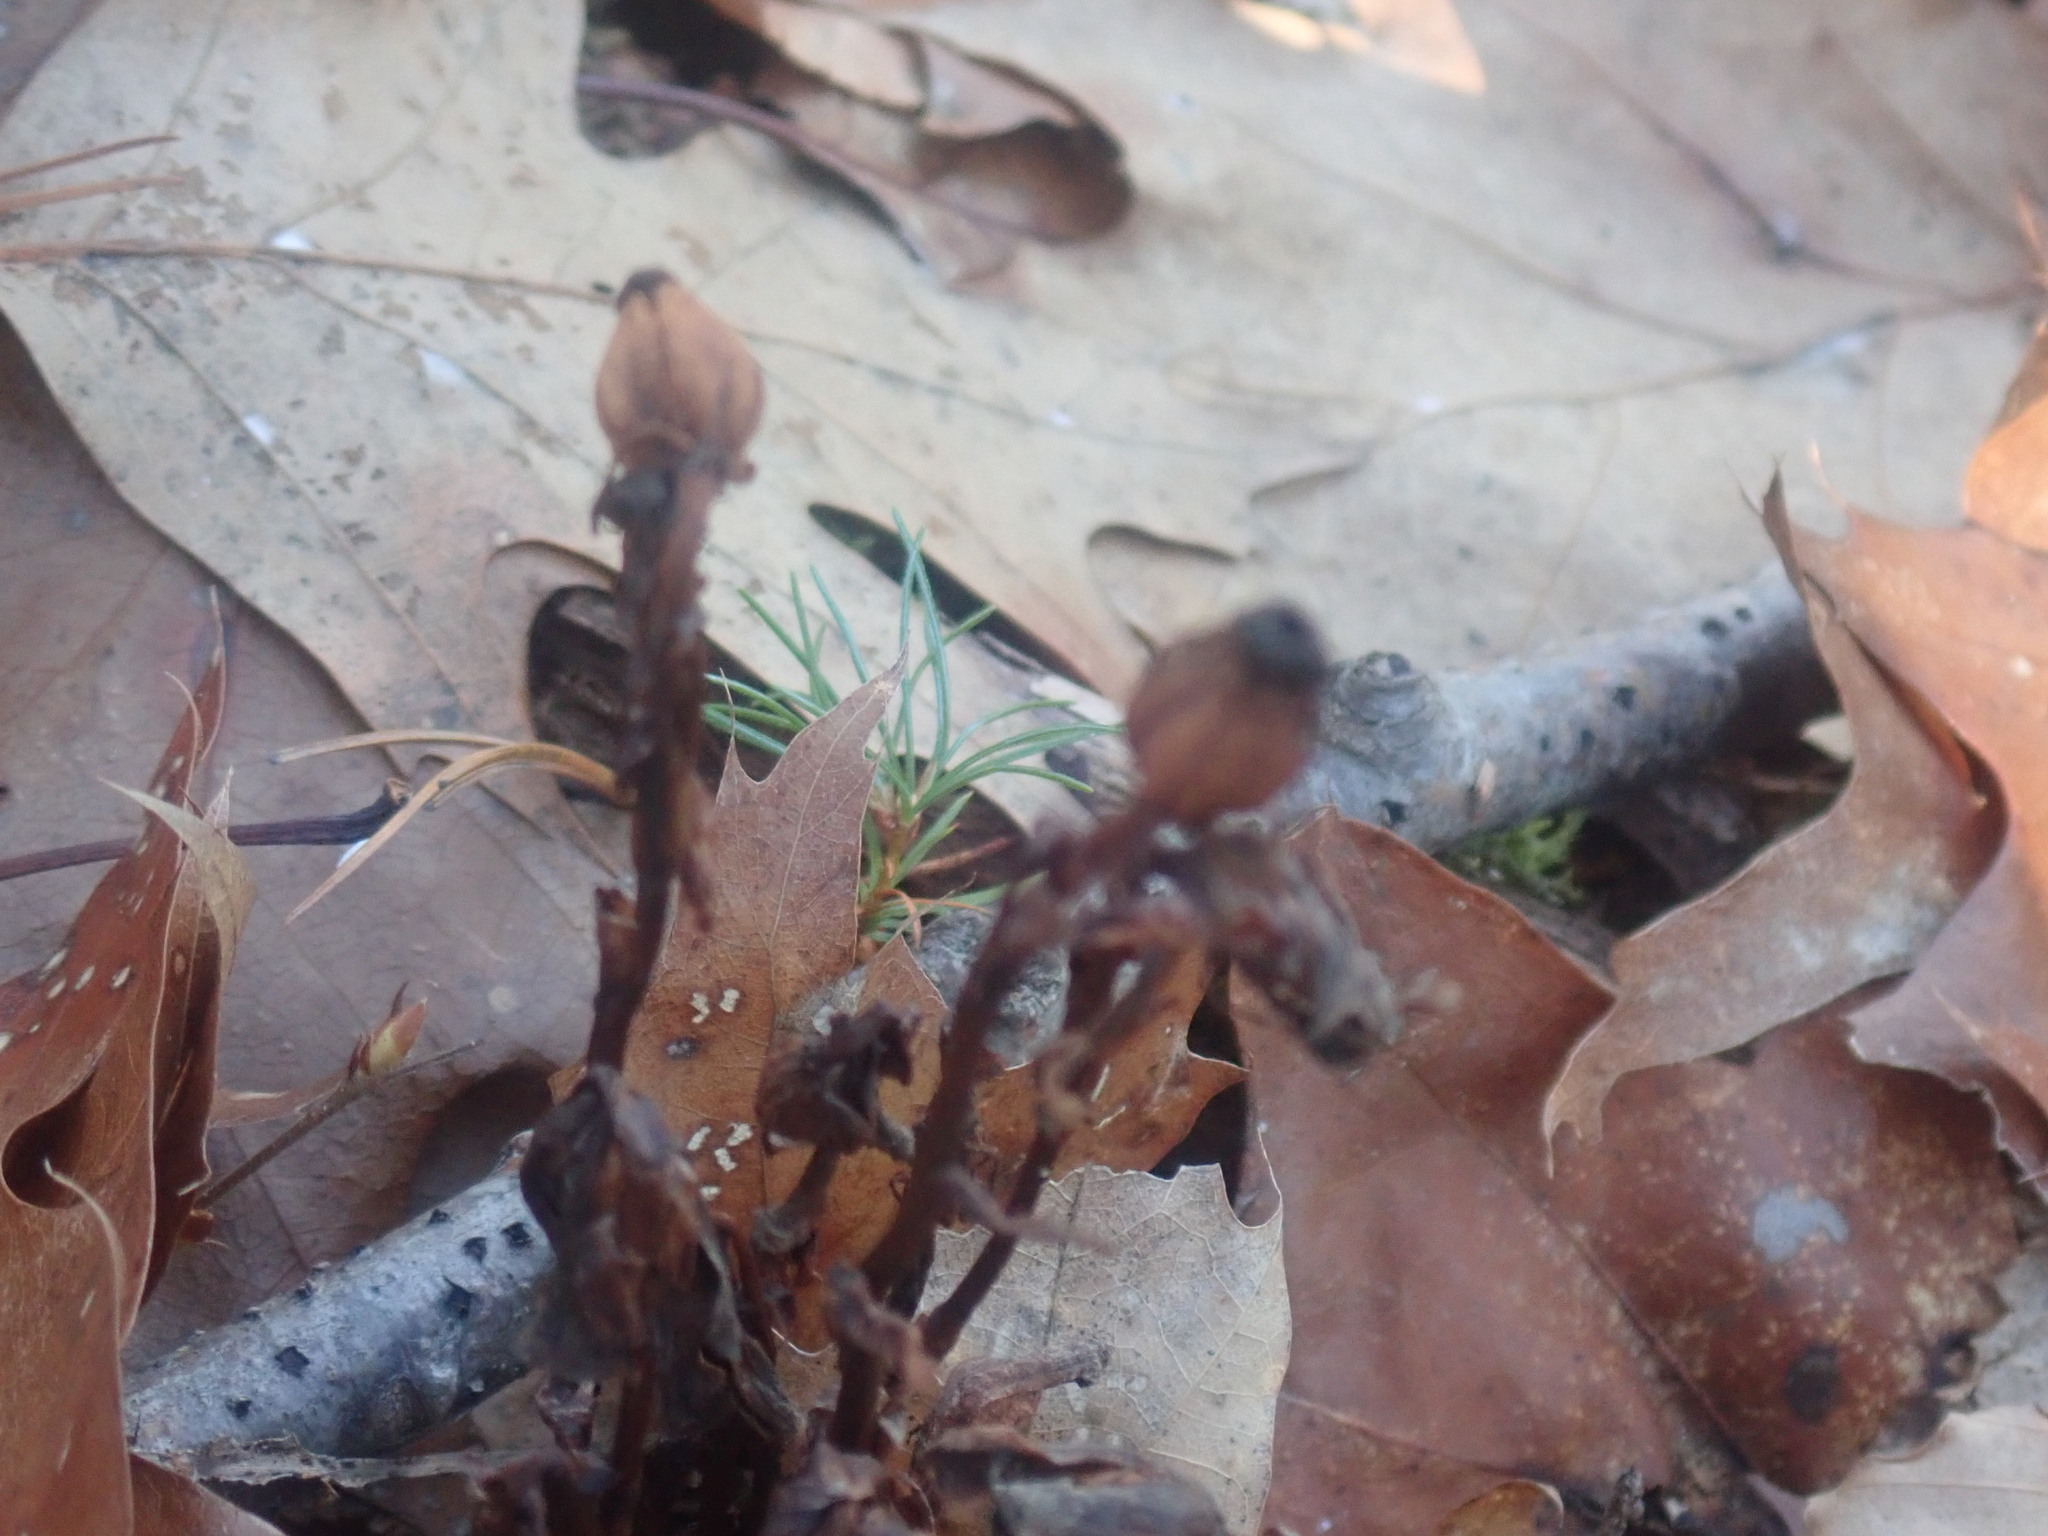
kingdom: Plantae
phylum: Tracheophyta
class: Magnoliopsida
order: Ericales
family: Ericaceae
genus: Monotropa
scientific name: Monotropa uniflora
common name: Convulsion root
